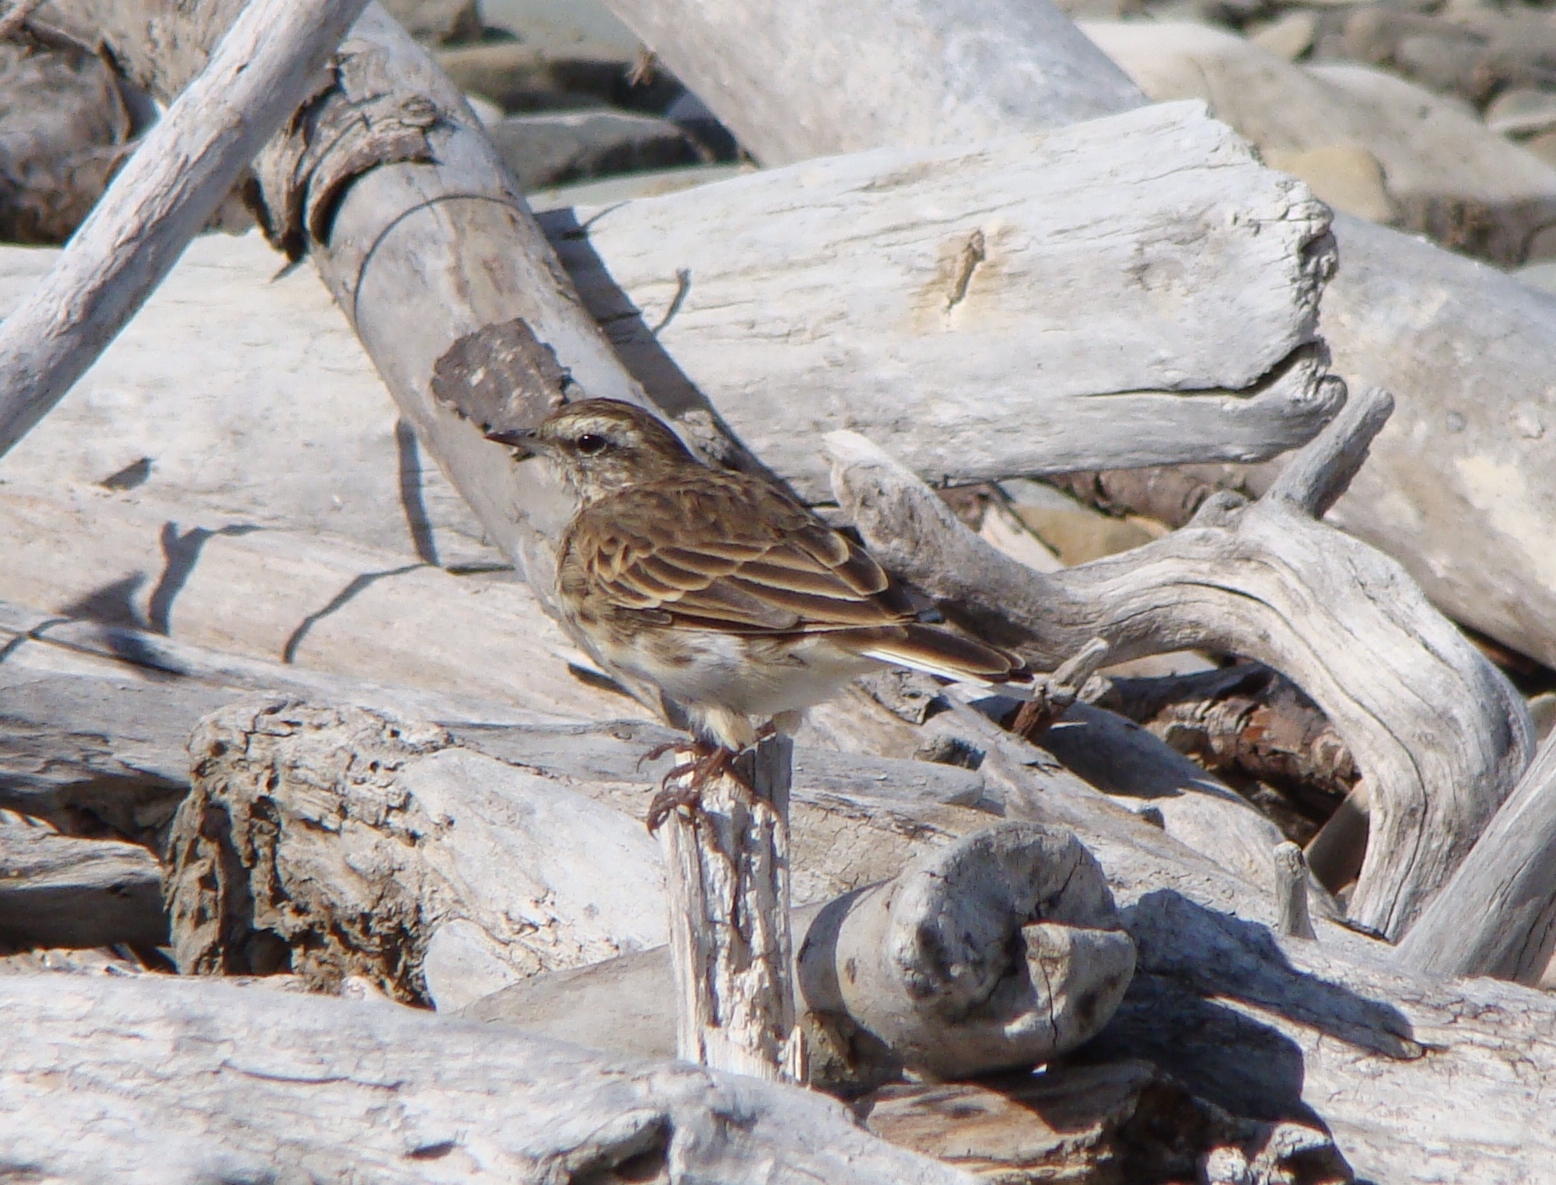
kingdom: Animalia
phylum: Chordata
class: Aves
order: Passeriformes
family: Motacillidae
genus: Anthus
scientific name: Anthus novaeseelandiae
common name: New zealand pipit
